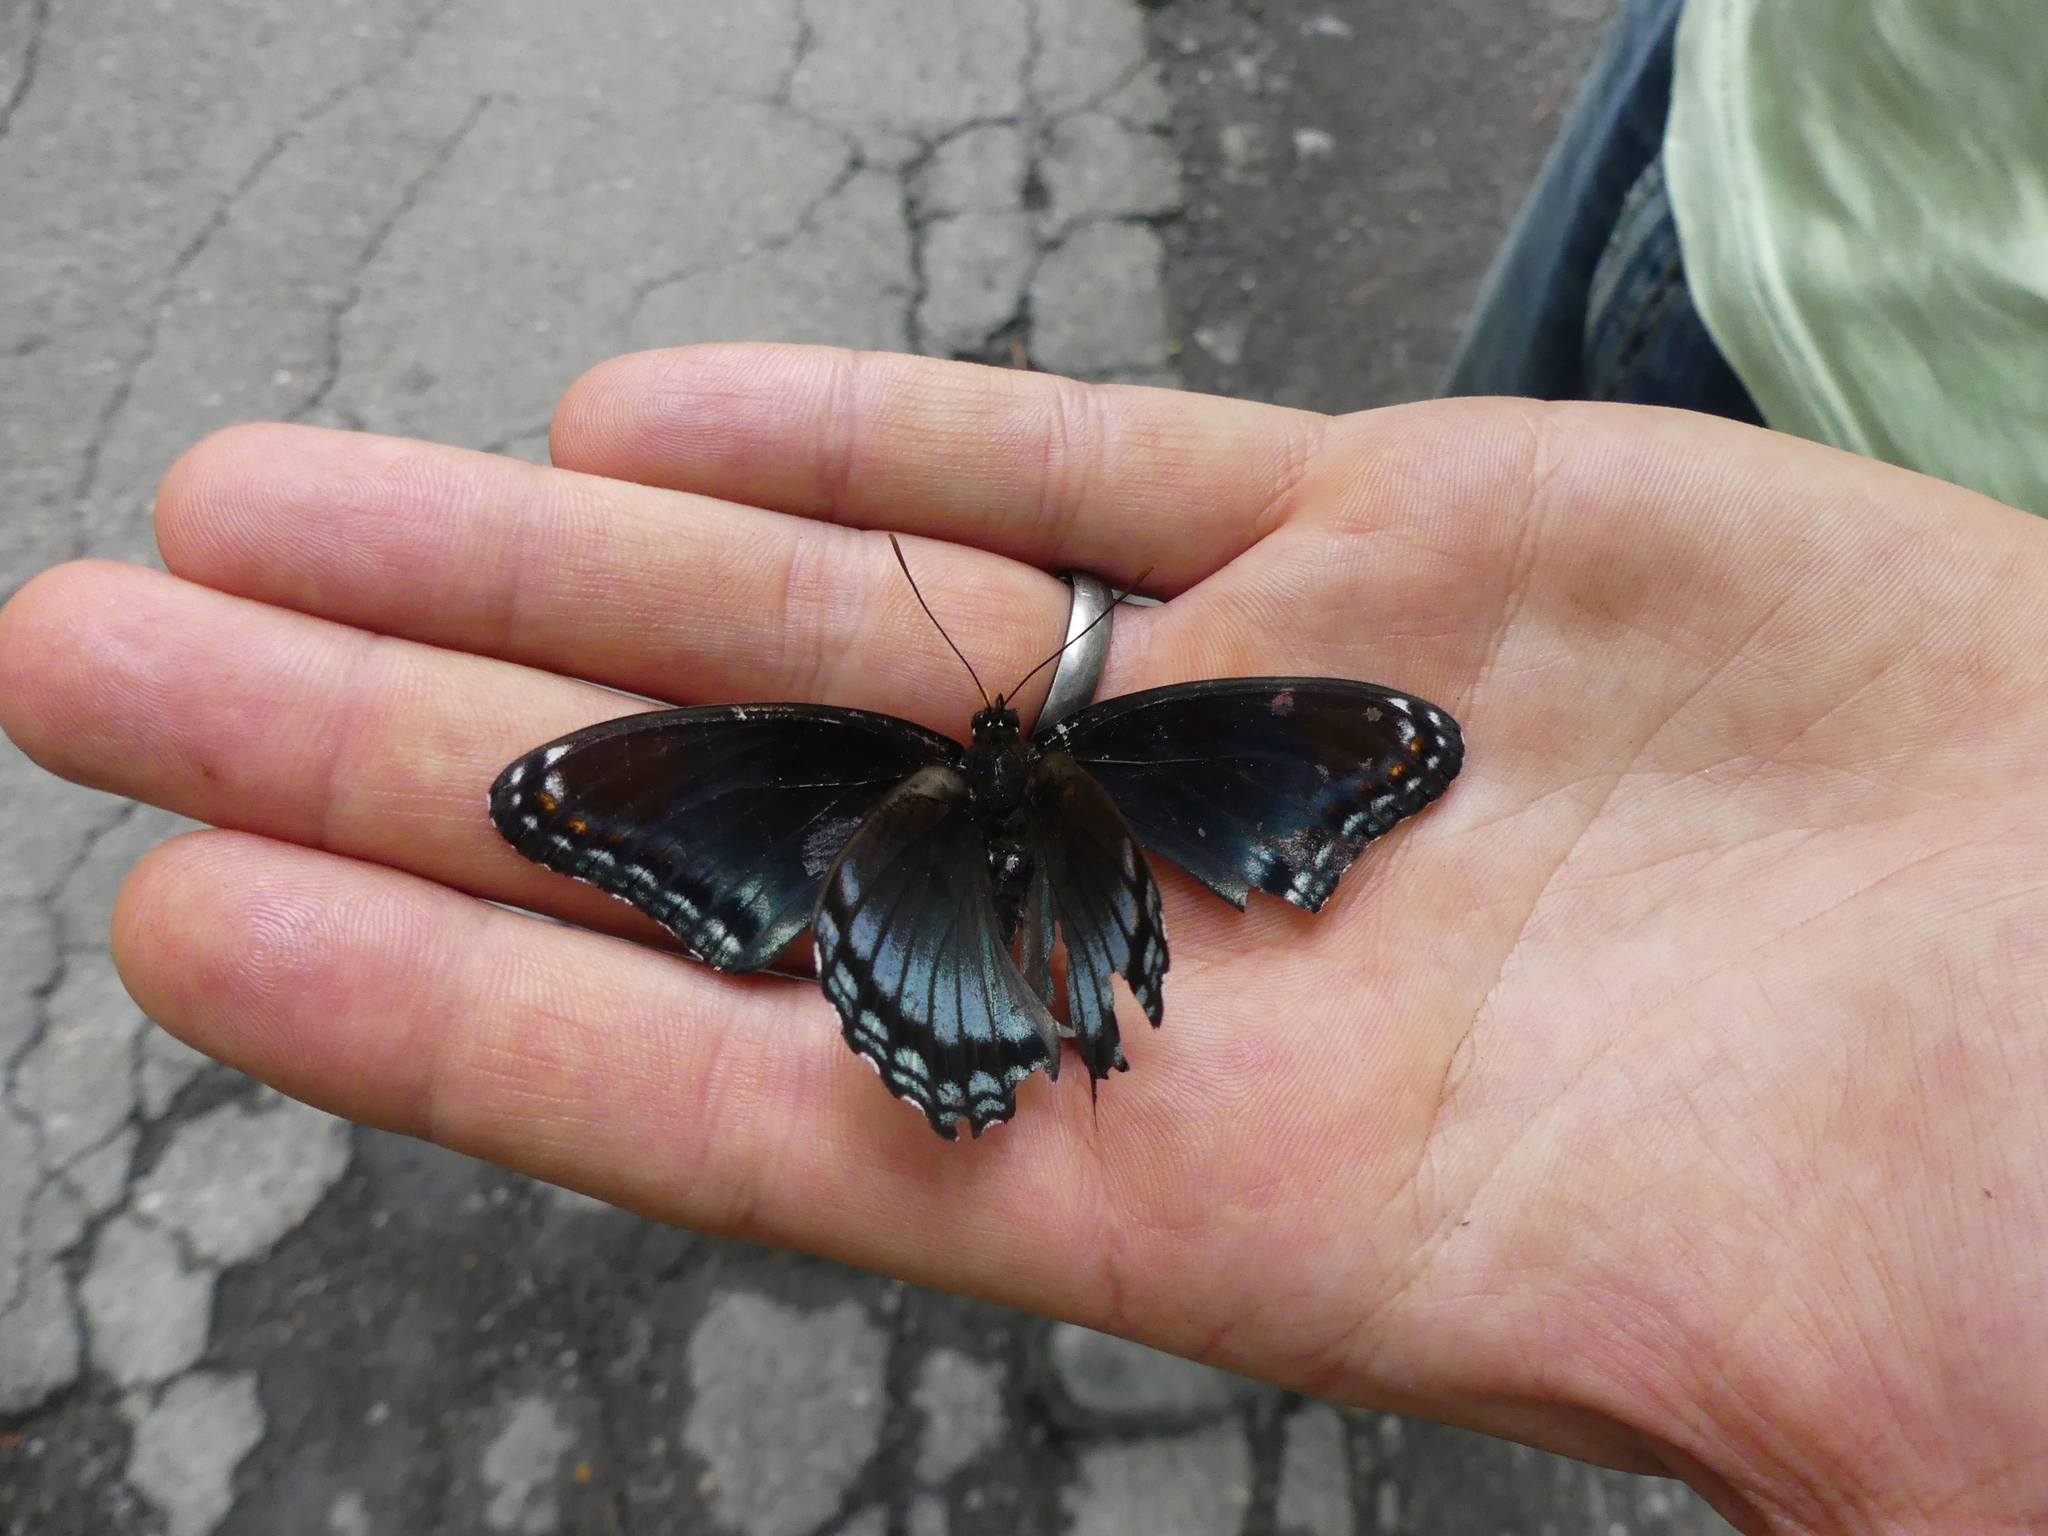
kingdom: Animalia
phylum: Arthropoda
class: Insecta
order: Lepidoptera
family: Nymphalidae
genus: Limenitis
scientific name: Limenitis arthemis
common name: Red-spotted admiral
